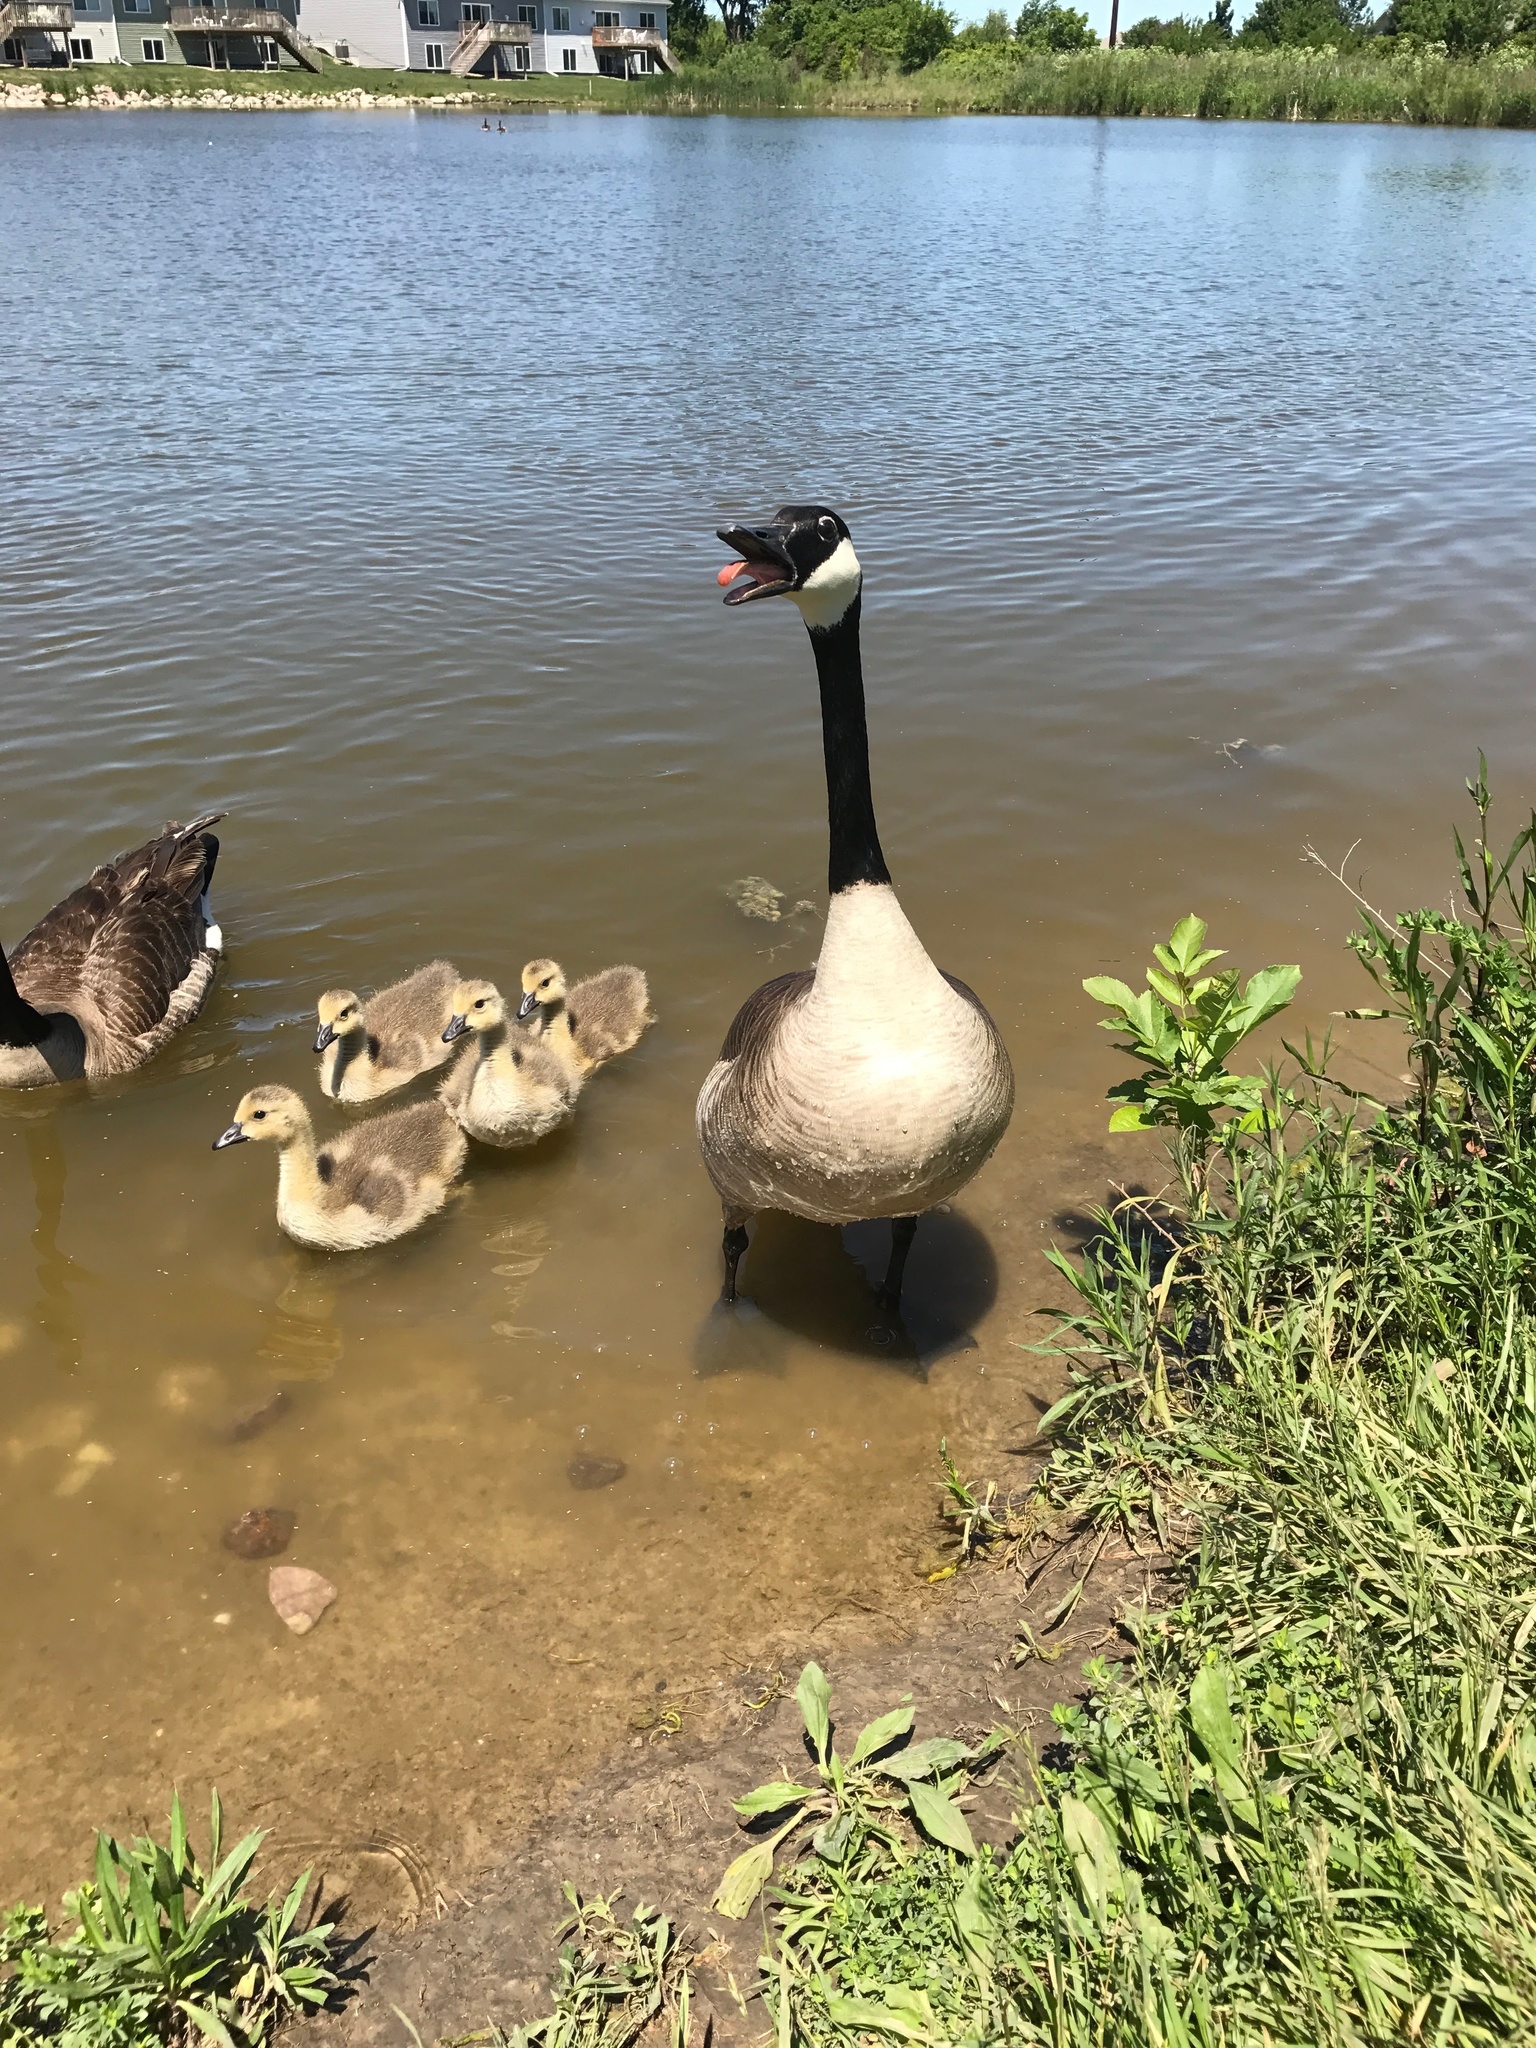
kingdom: Animalia
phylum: Chordata
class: Aves
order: Anseriformes
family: Anatidae
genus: Branta
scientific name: Branta canadensis
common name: Canada goose
